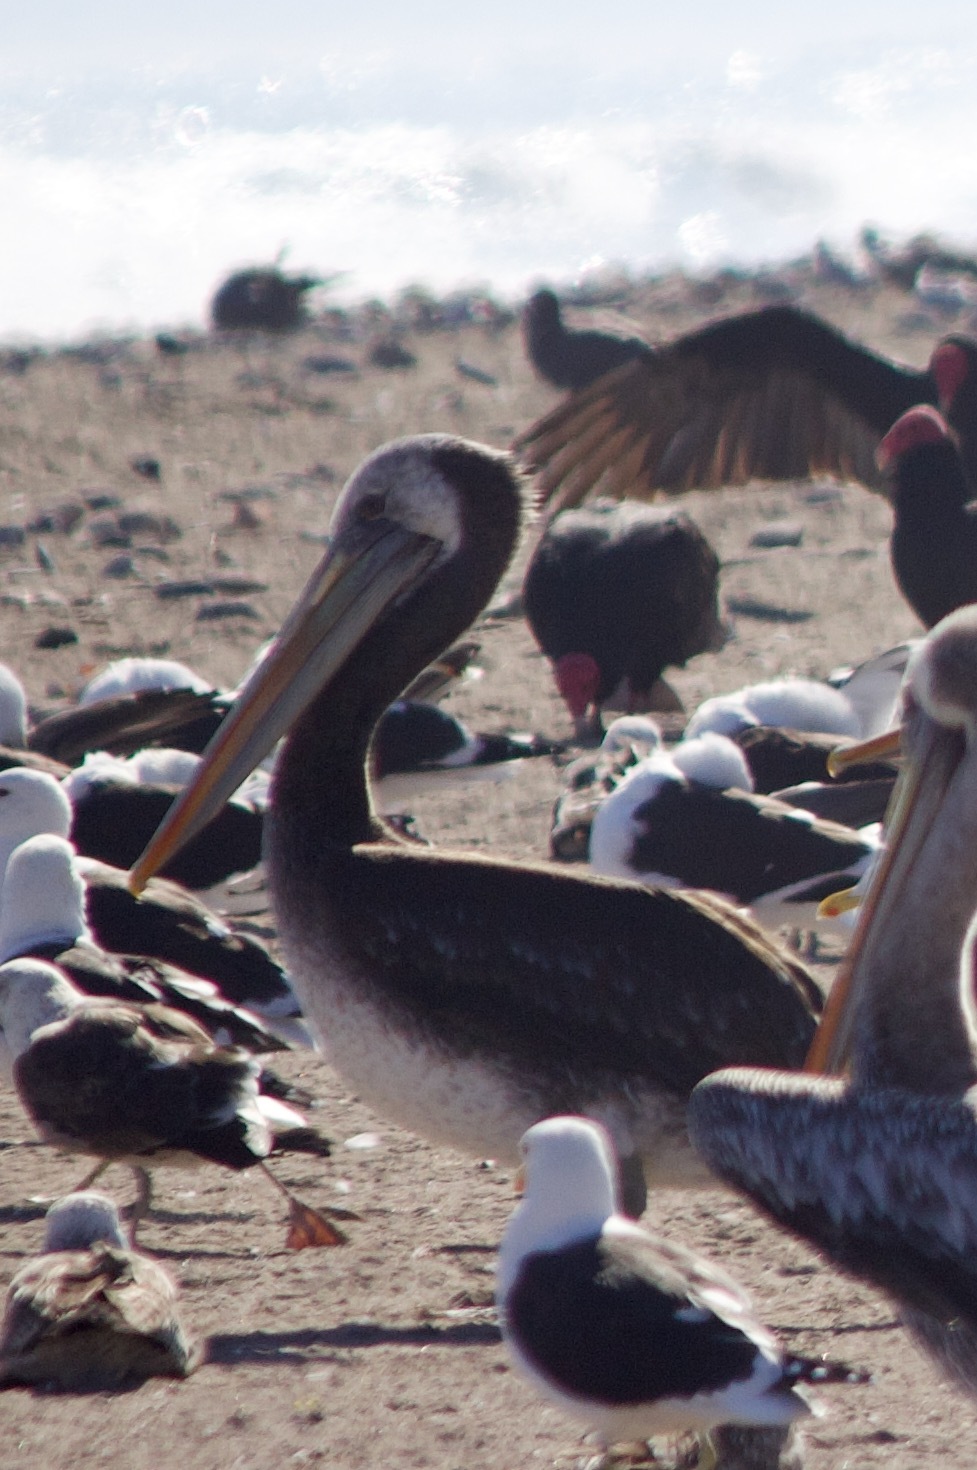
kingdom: Animalia
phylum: Chordata
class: Aves
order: Pelecaniformes
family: Pelecanidae
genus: Pelecanus
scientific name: Pelecanus thagus
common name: Peruvian pelican
